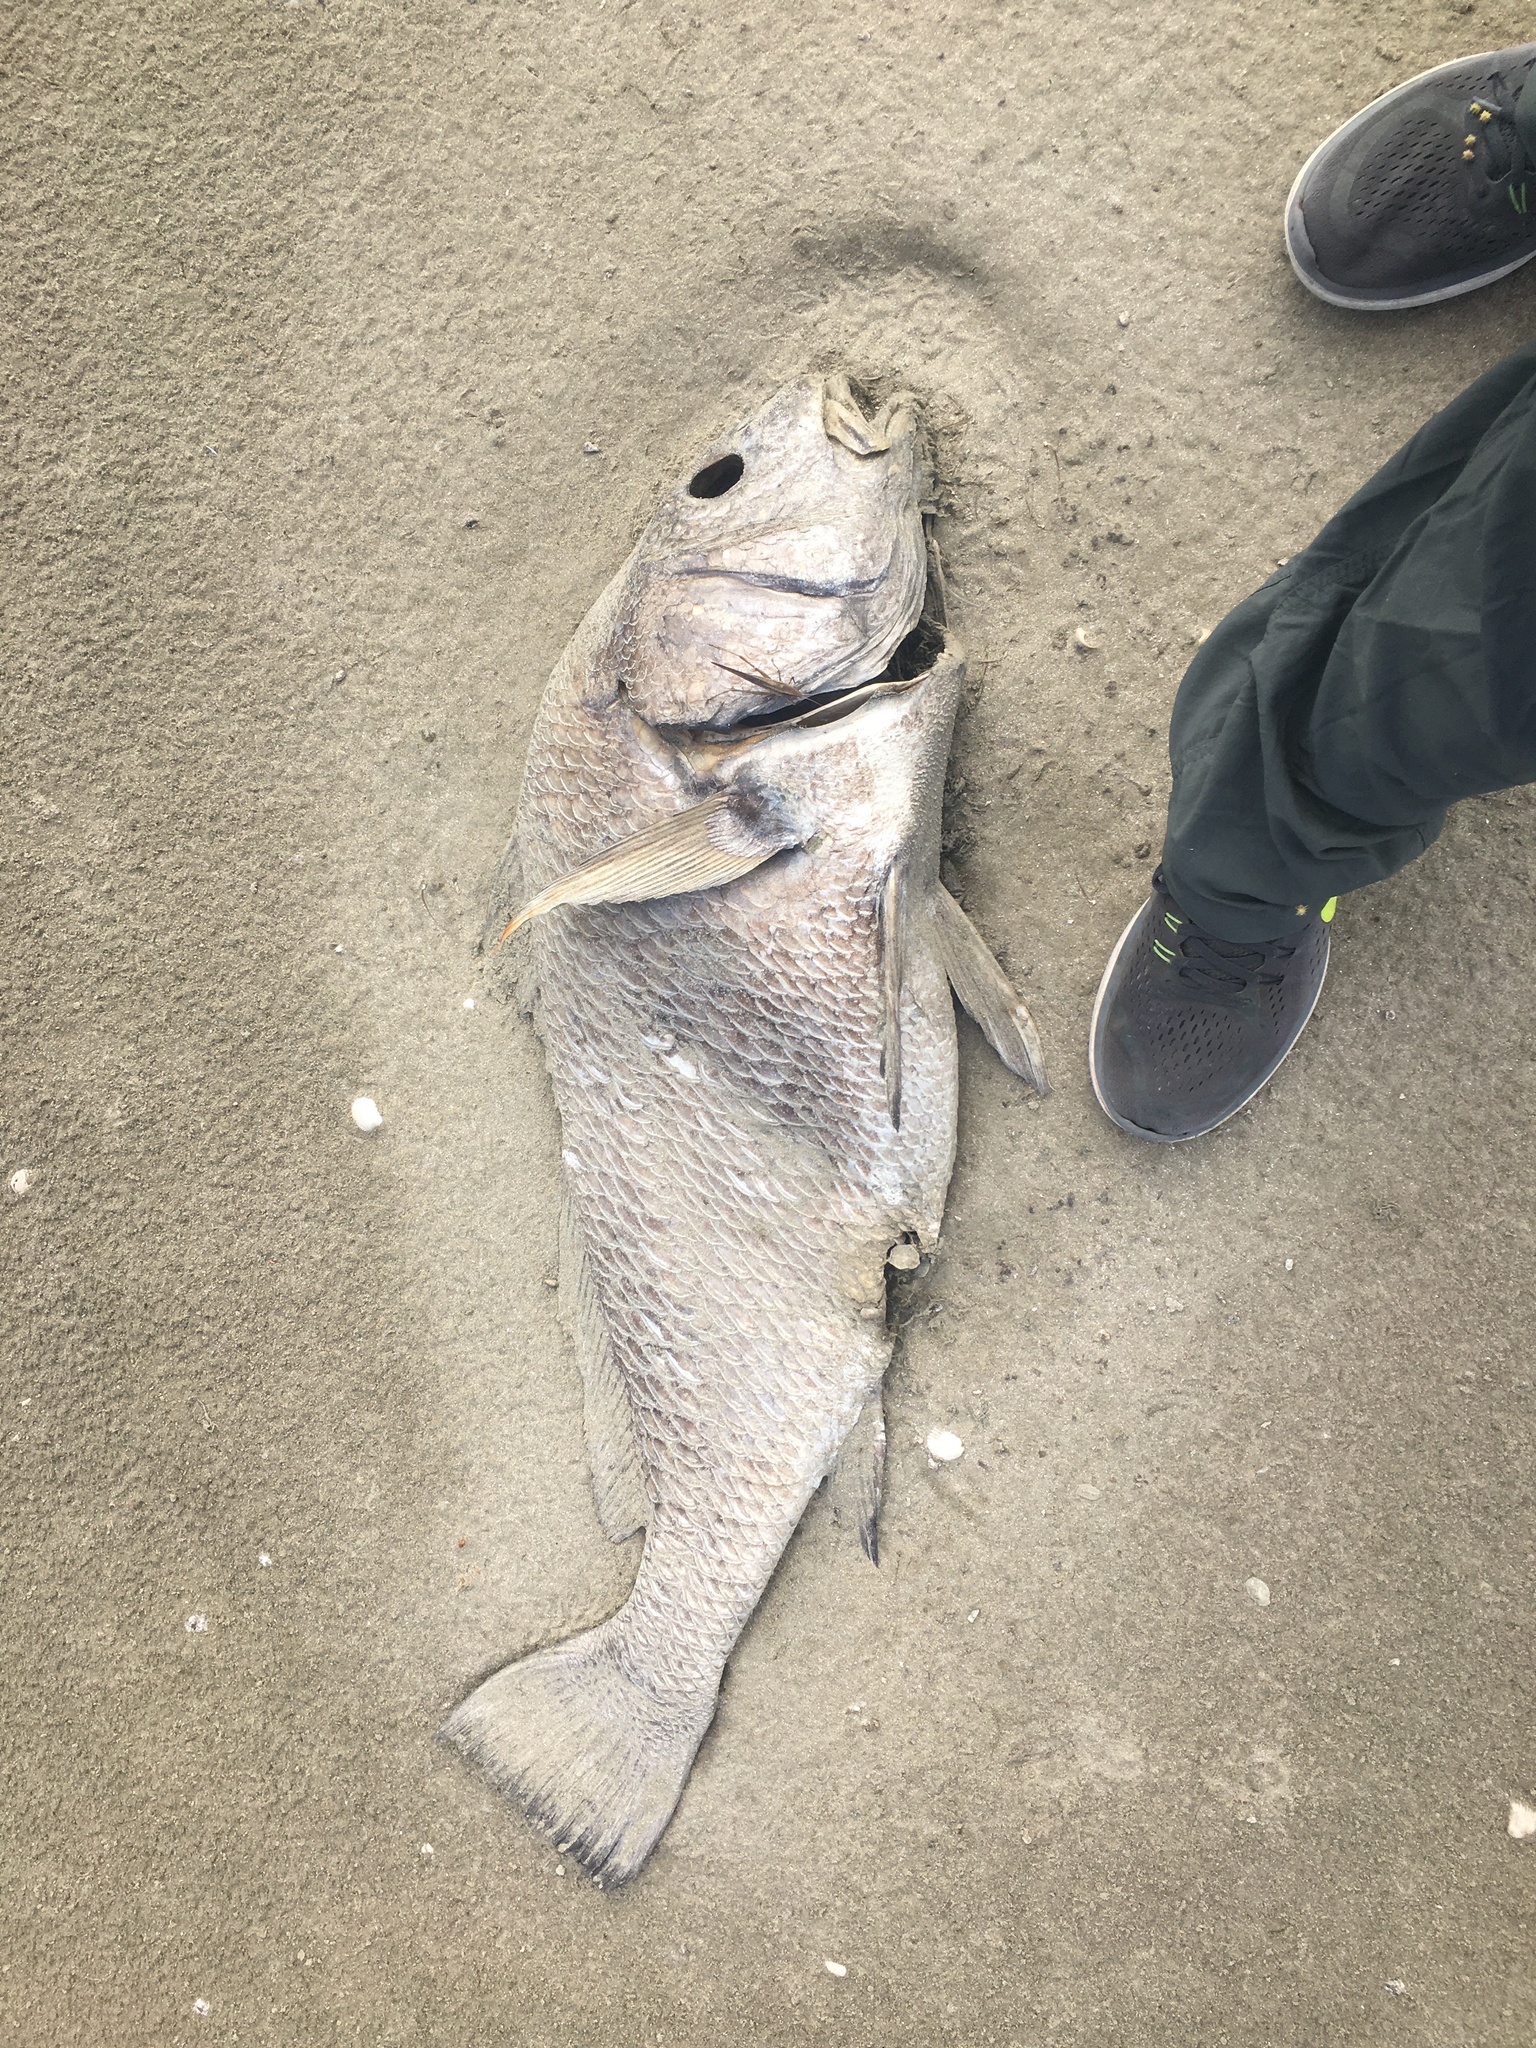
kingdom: Animalia
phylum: Chordata
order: Perciformes
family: Sciaenidae
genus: Pogonias
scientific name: Pogonias cromis
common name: Black drum
